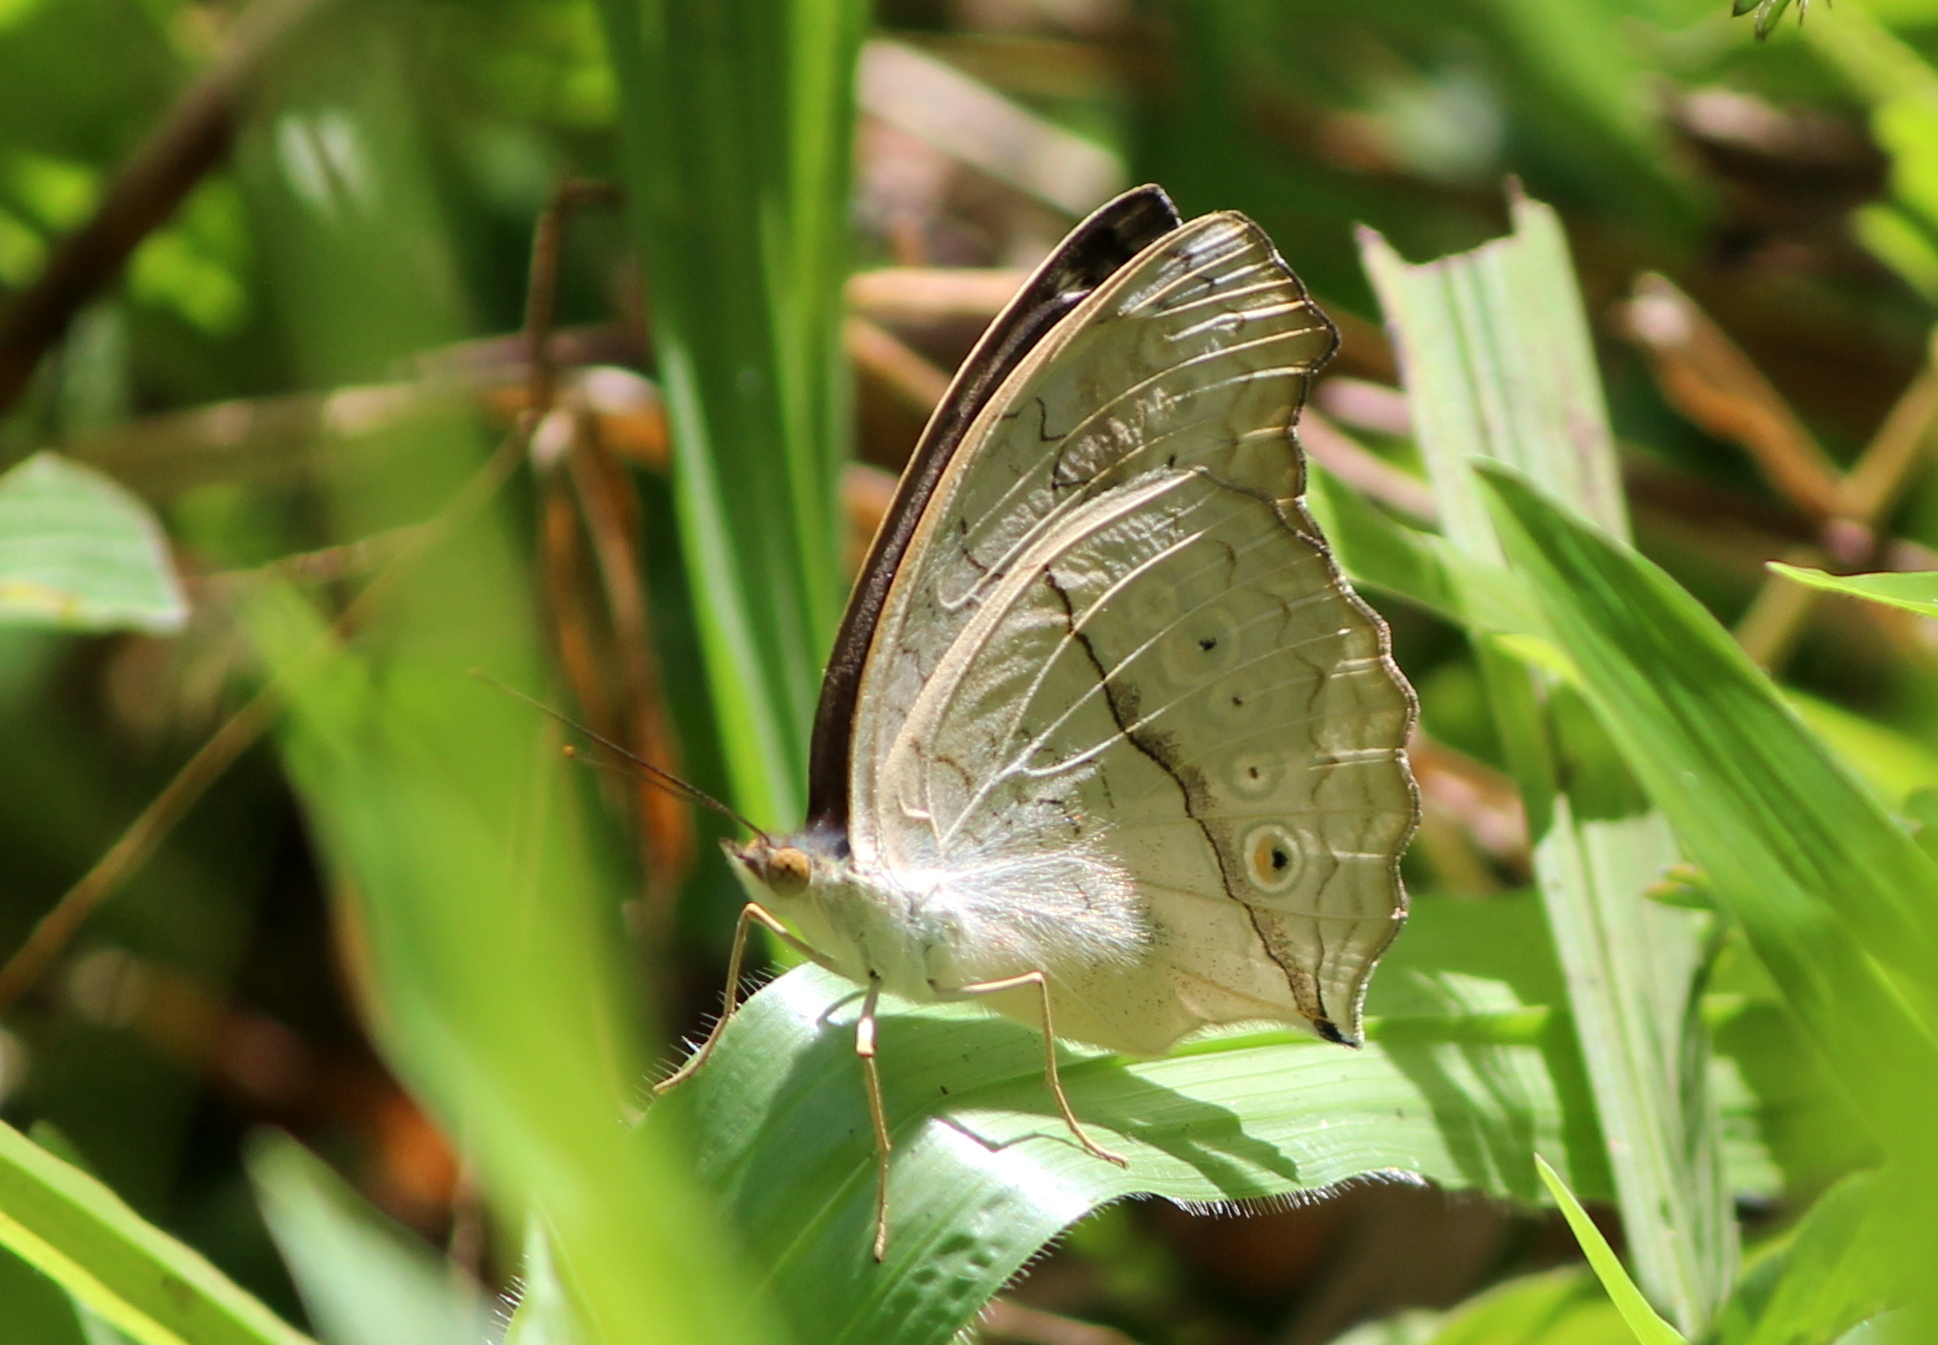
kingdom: Animalia
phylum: Arthropoda
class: Insecta
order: Lepidoptera
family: Nymphalidae
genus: Junonia
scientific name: Junonia atlites
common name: Grey pansy
